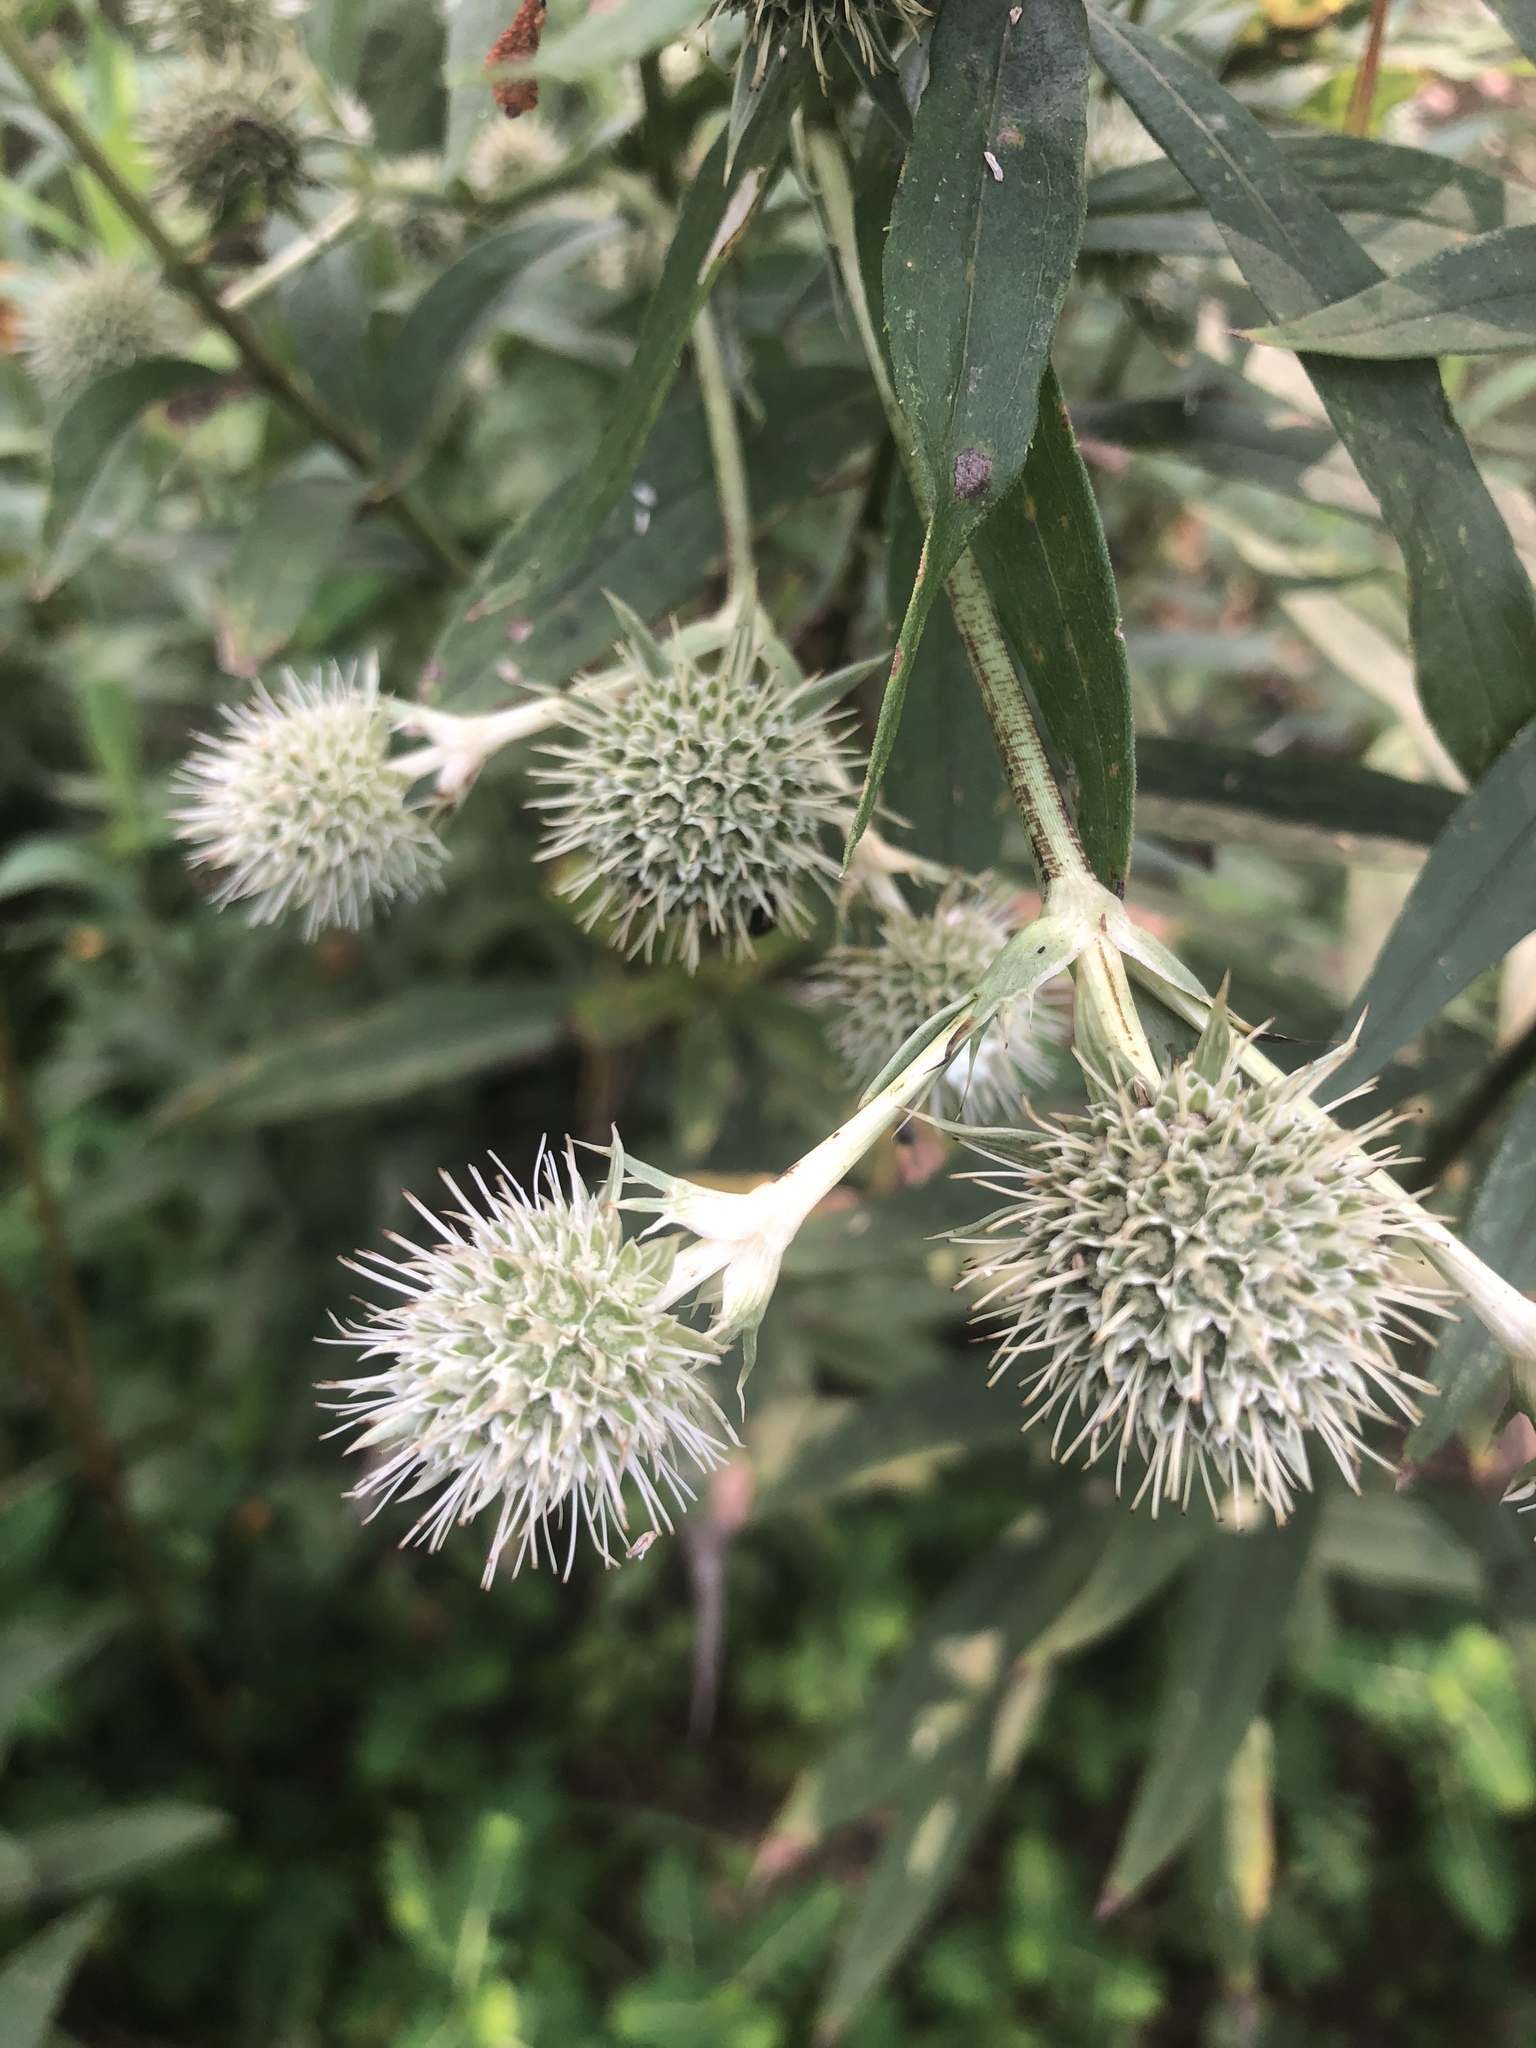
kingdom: Plantae
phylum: Tracheophyta
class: Magnoliopsida
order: Apiales
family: Apiaceae
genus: Eryngium
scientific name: Eryngium yuccifolium
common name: Button eryngo
